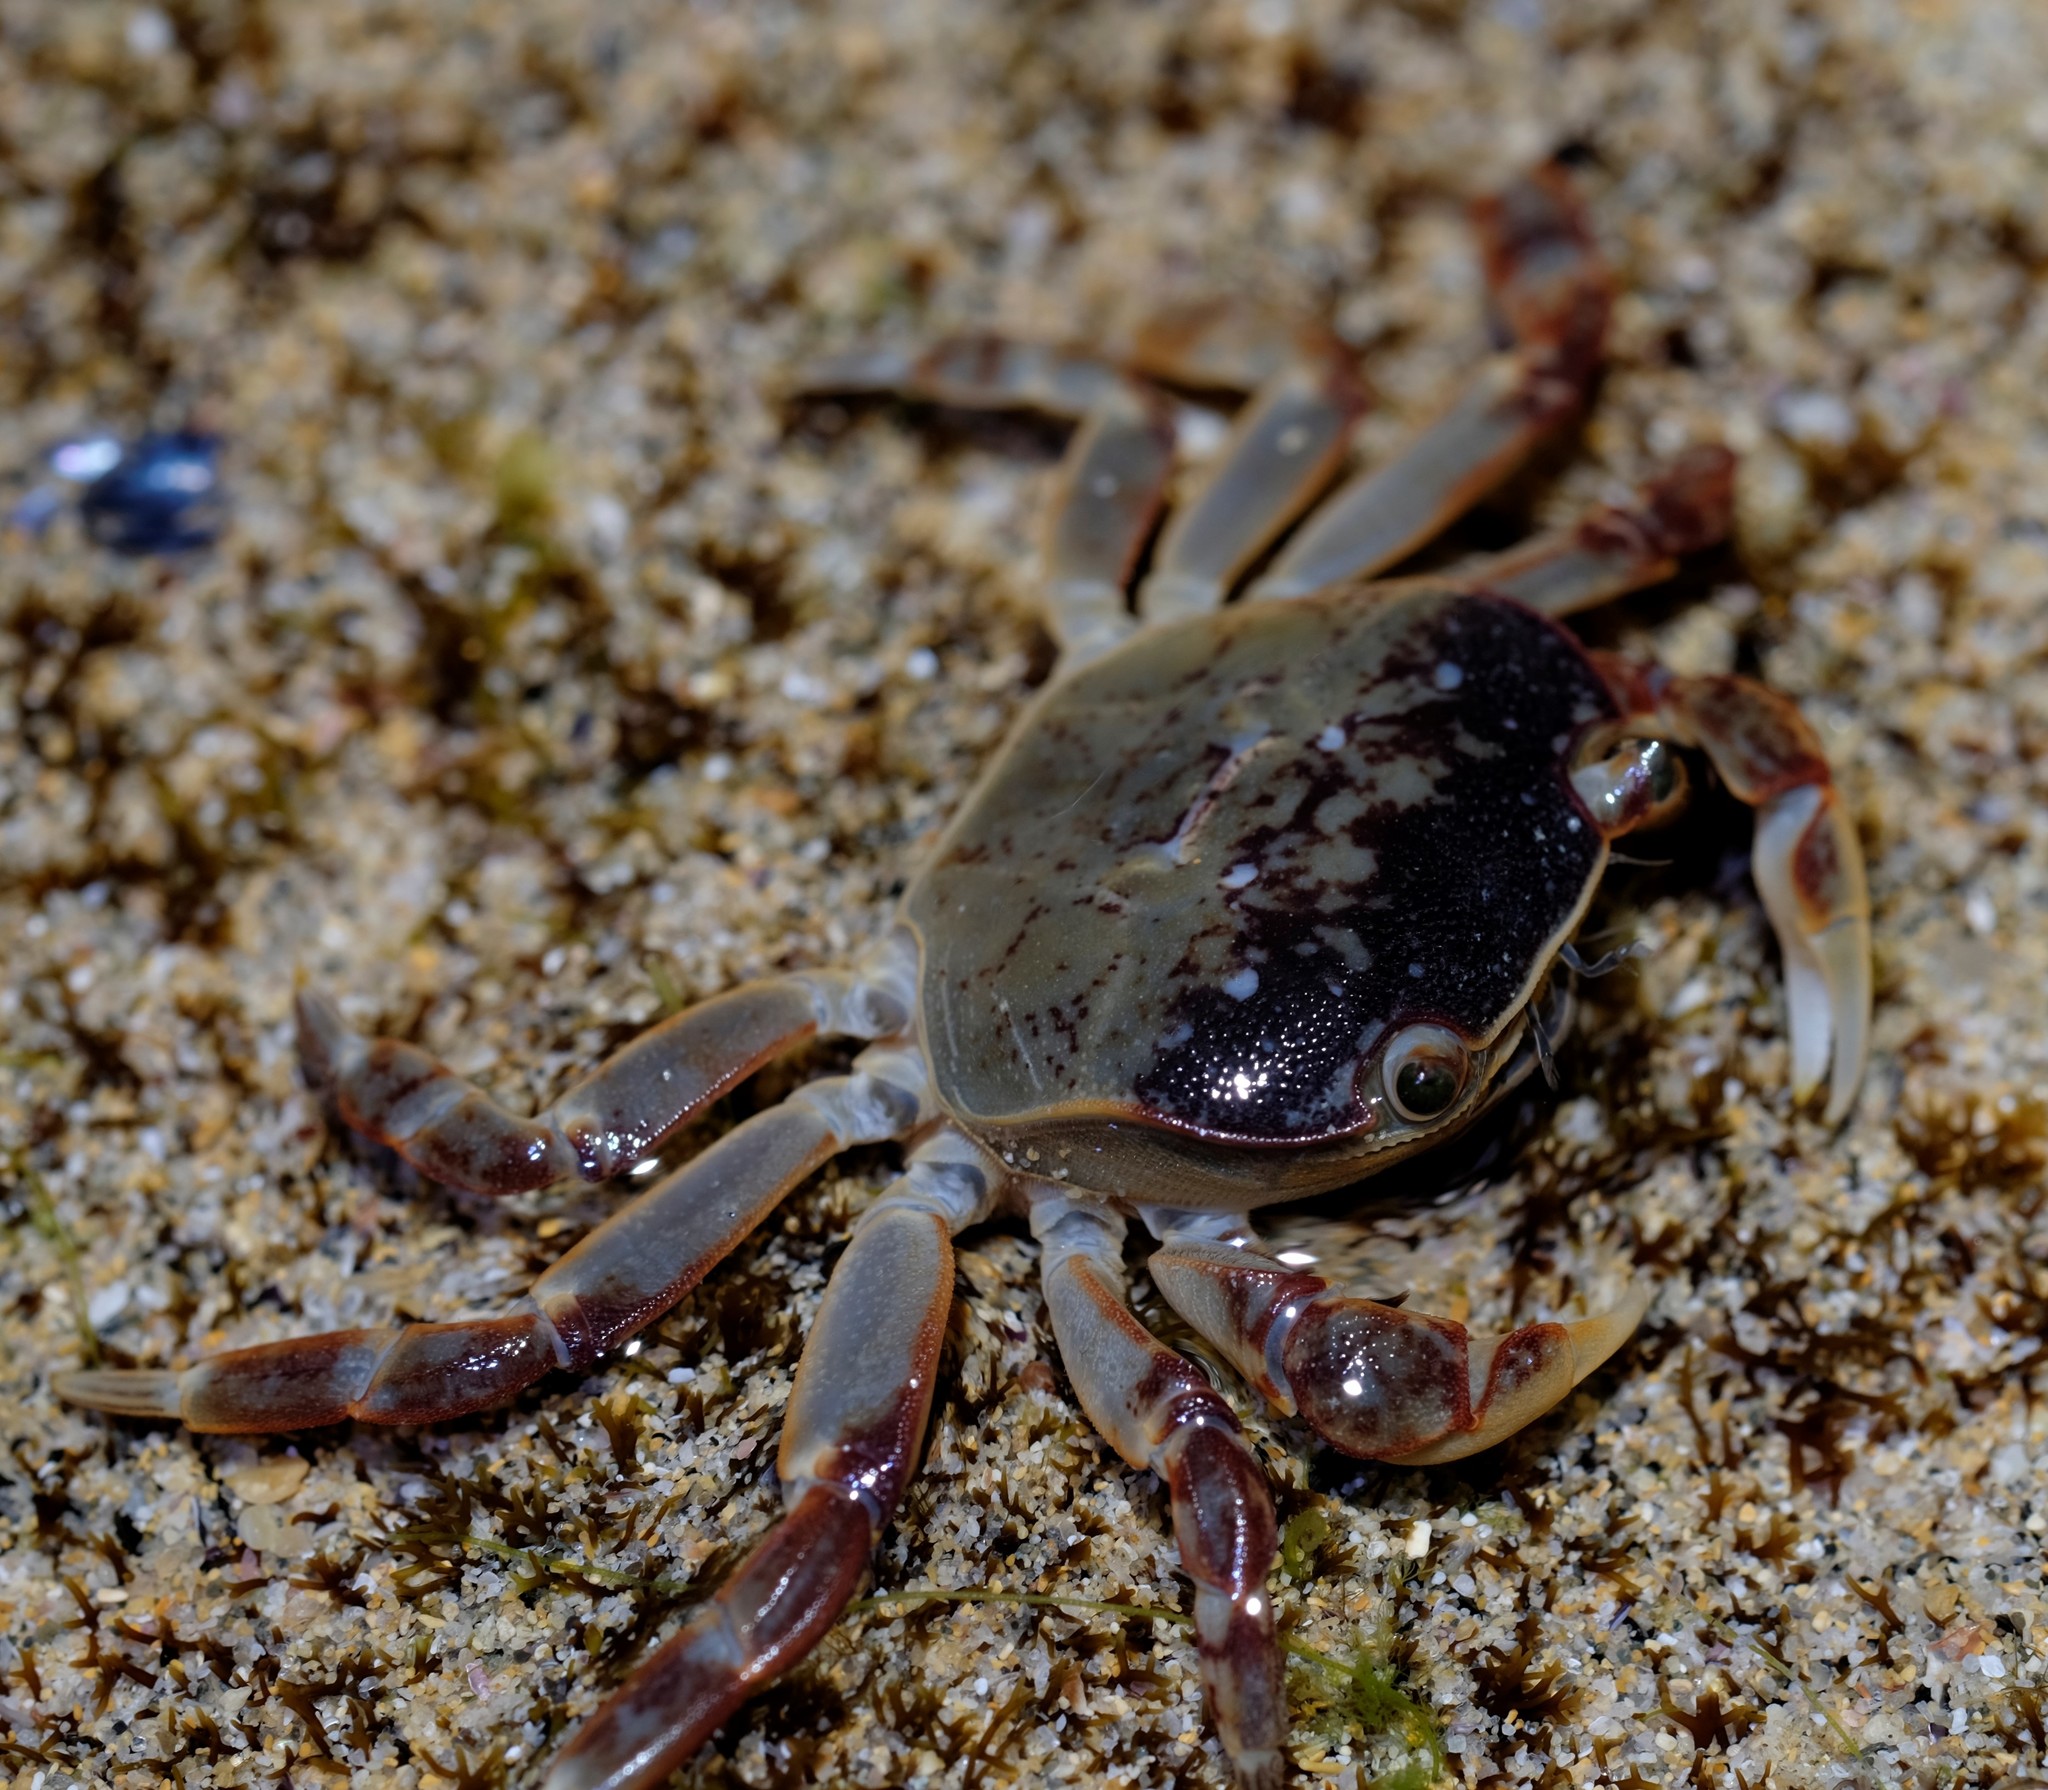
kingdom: Animalia
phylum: Arthropoda
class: Malacostraca
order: Decapoda
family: Varunidae
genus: Cyclograpsus
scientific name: Cyclograpsus granulosus
